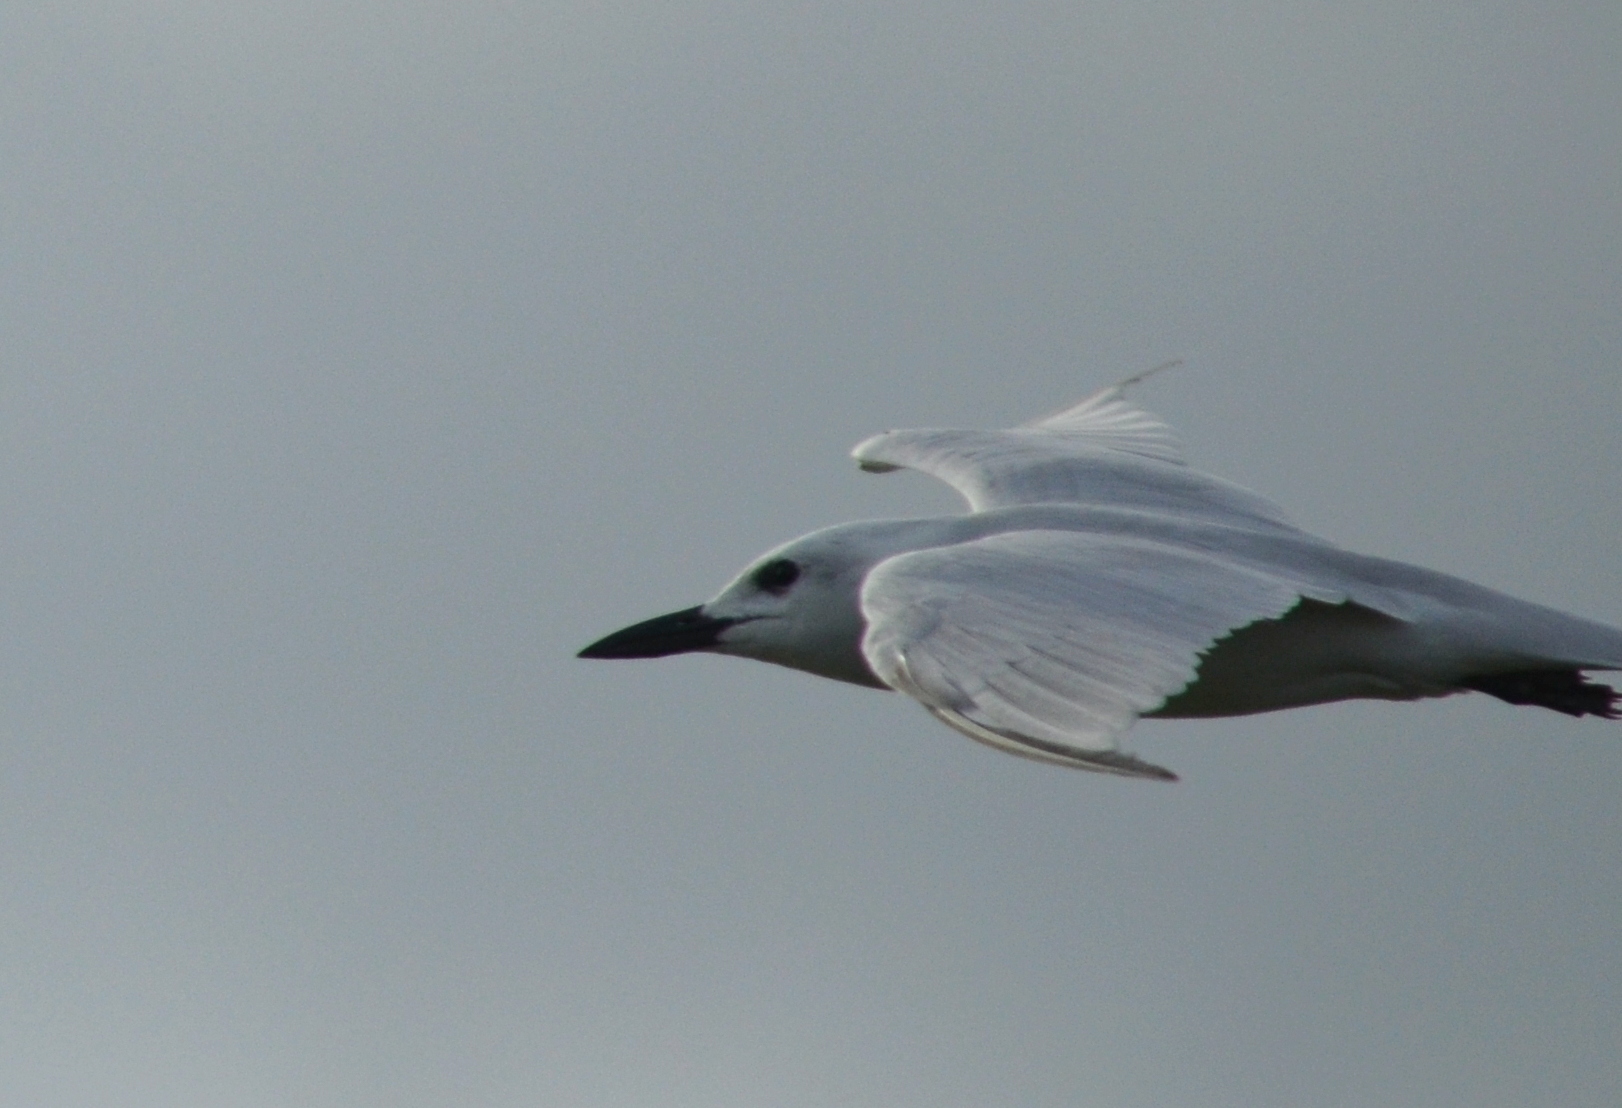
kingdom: Animalia
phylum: Chordata
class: Aves
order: Charadriiformes
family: Laridae
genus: Gelochelidon
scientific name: Gelochelidon nilotica
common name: Gull-billed tern
